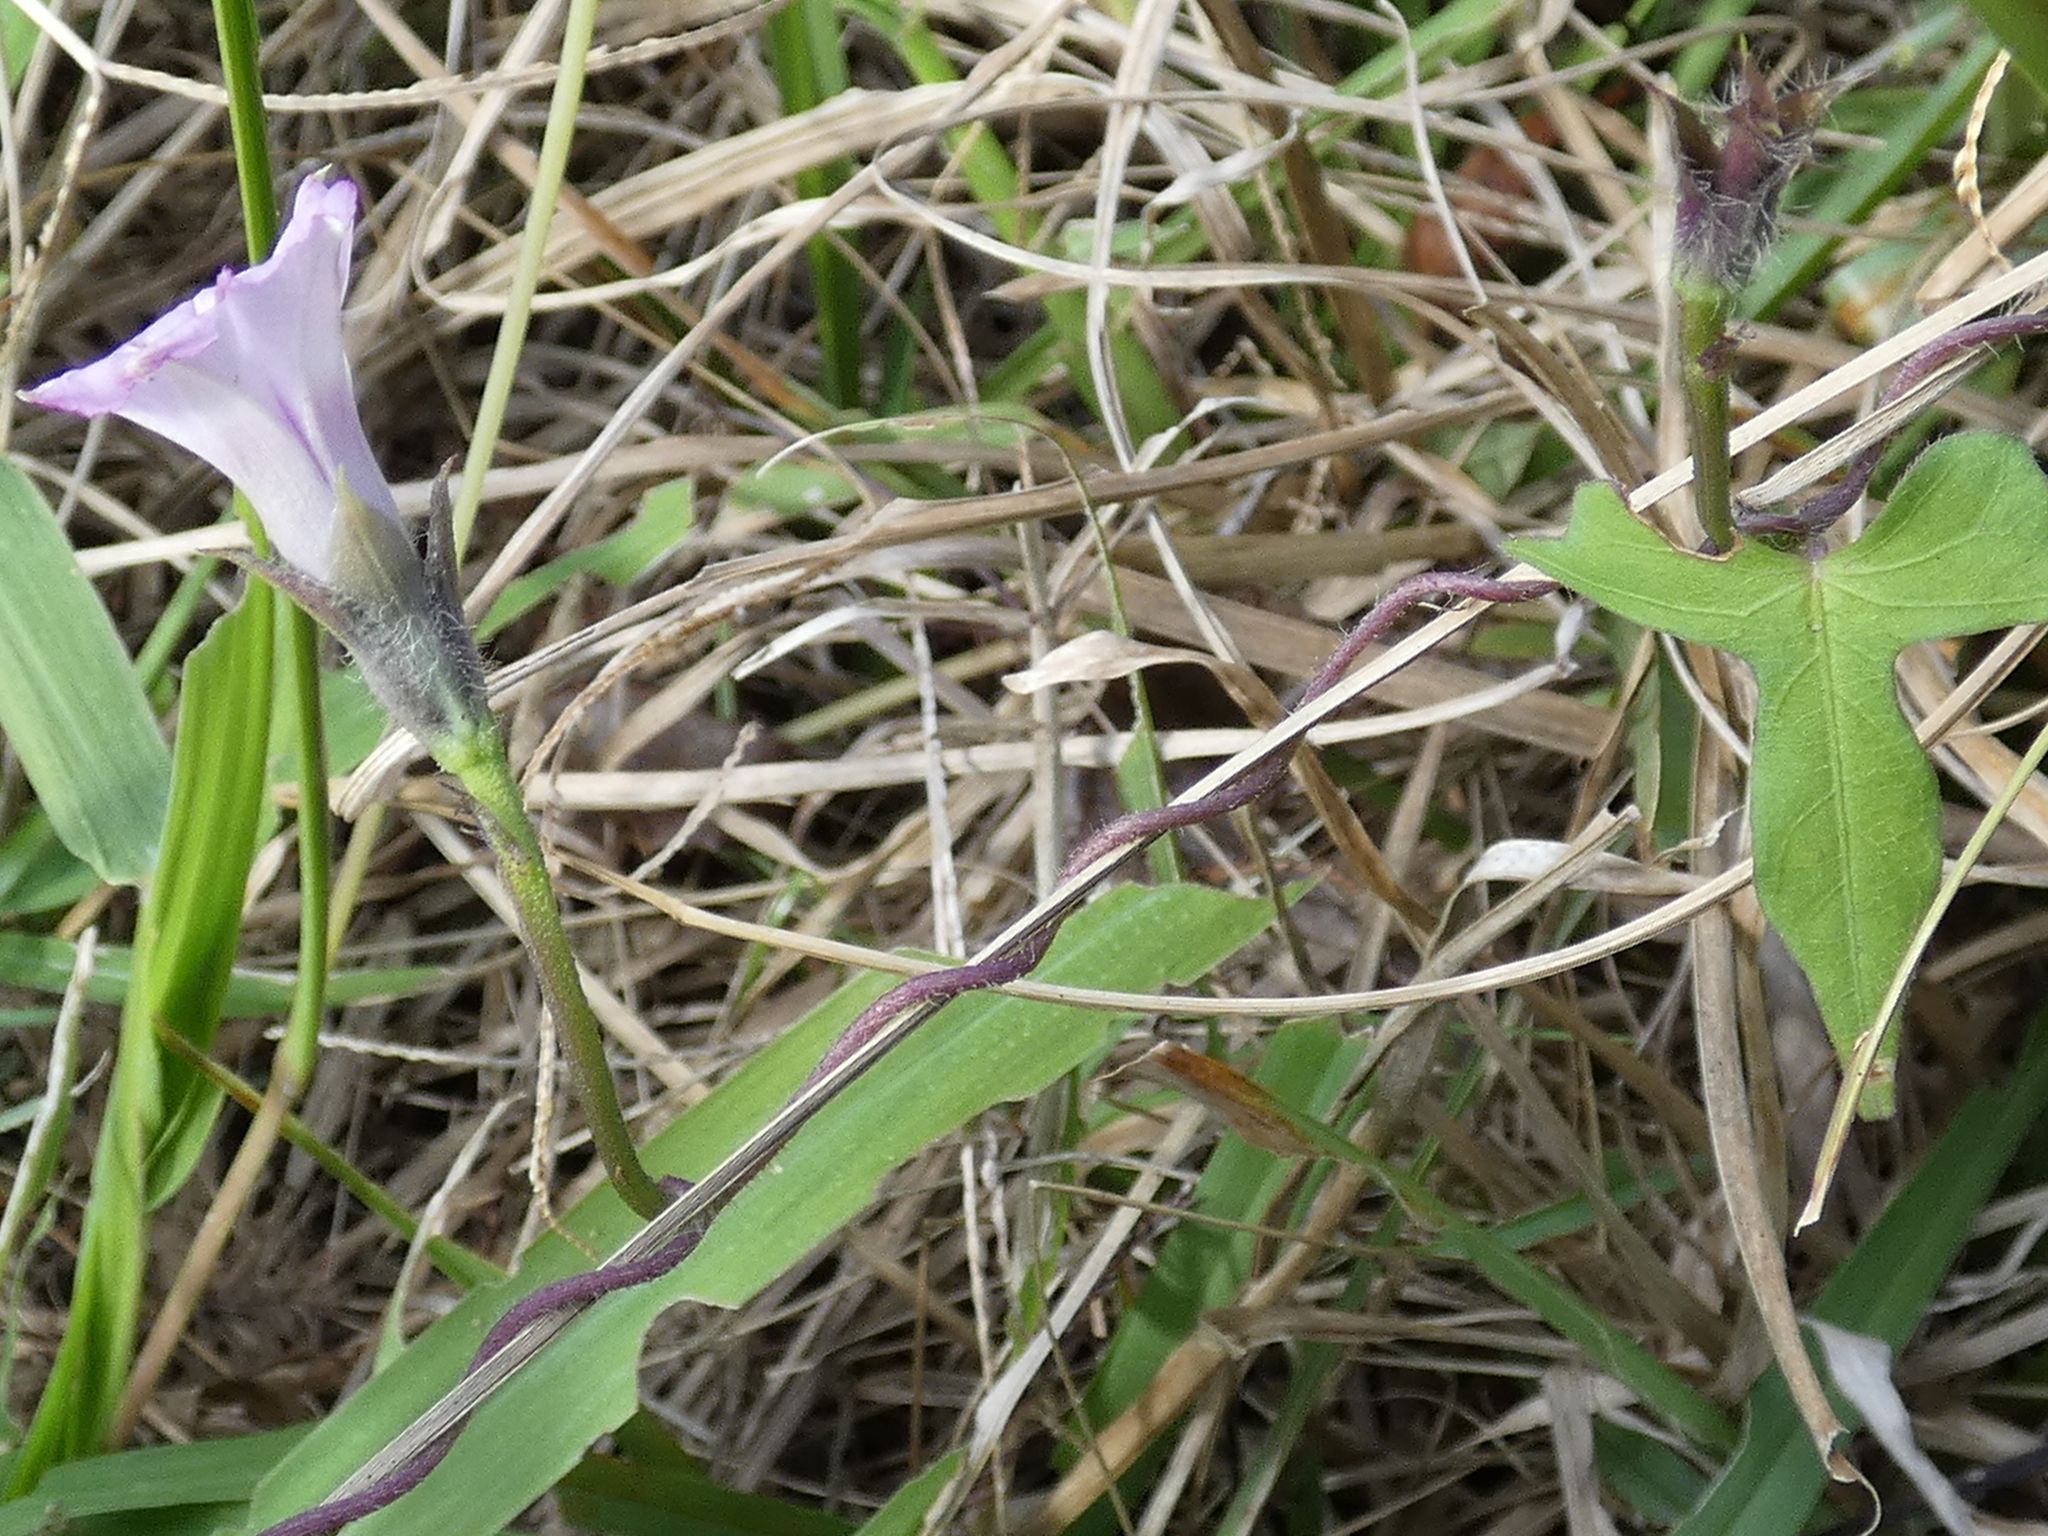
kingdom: Plantae
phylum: Tracheophyta
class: Magnoliopsida
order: Solanales
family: Convolvulaceae
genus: Ipomoea
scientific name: Ipomoea triloba
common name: Little-bell
